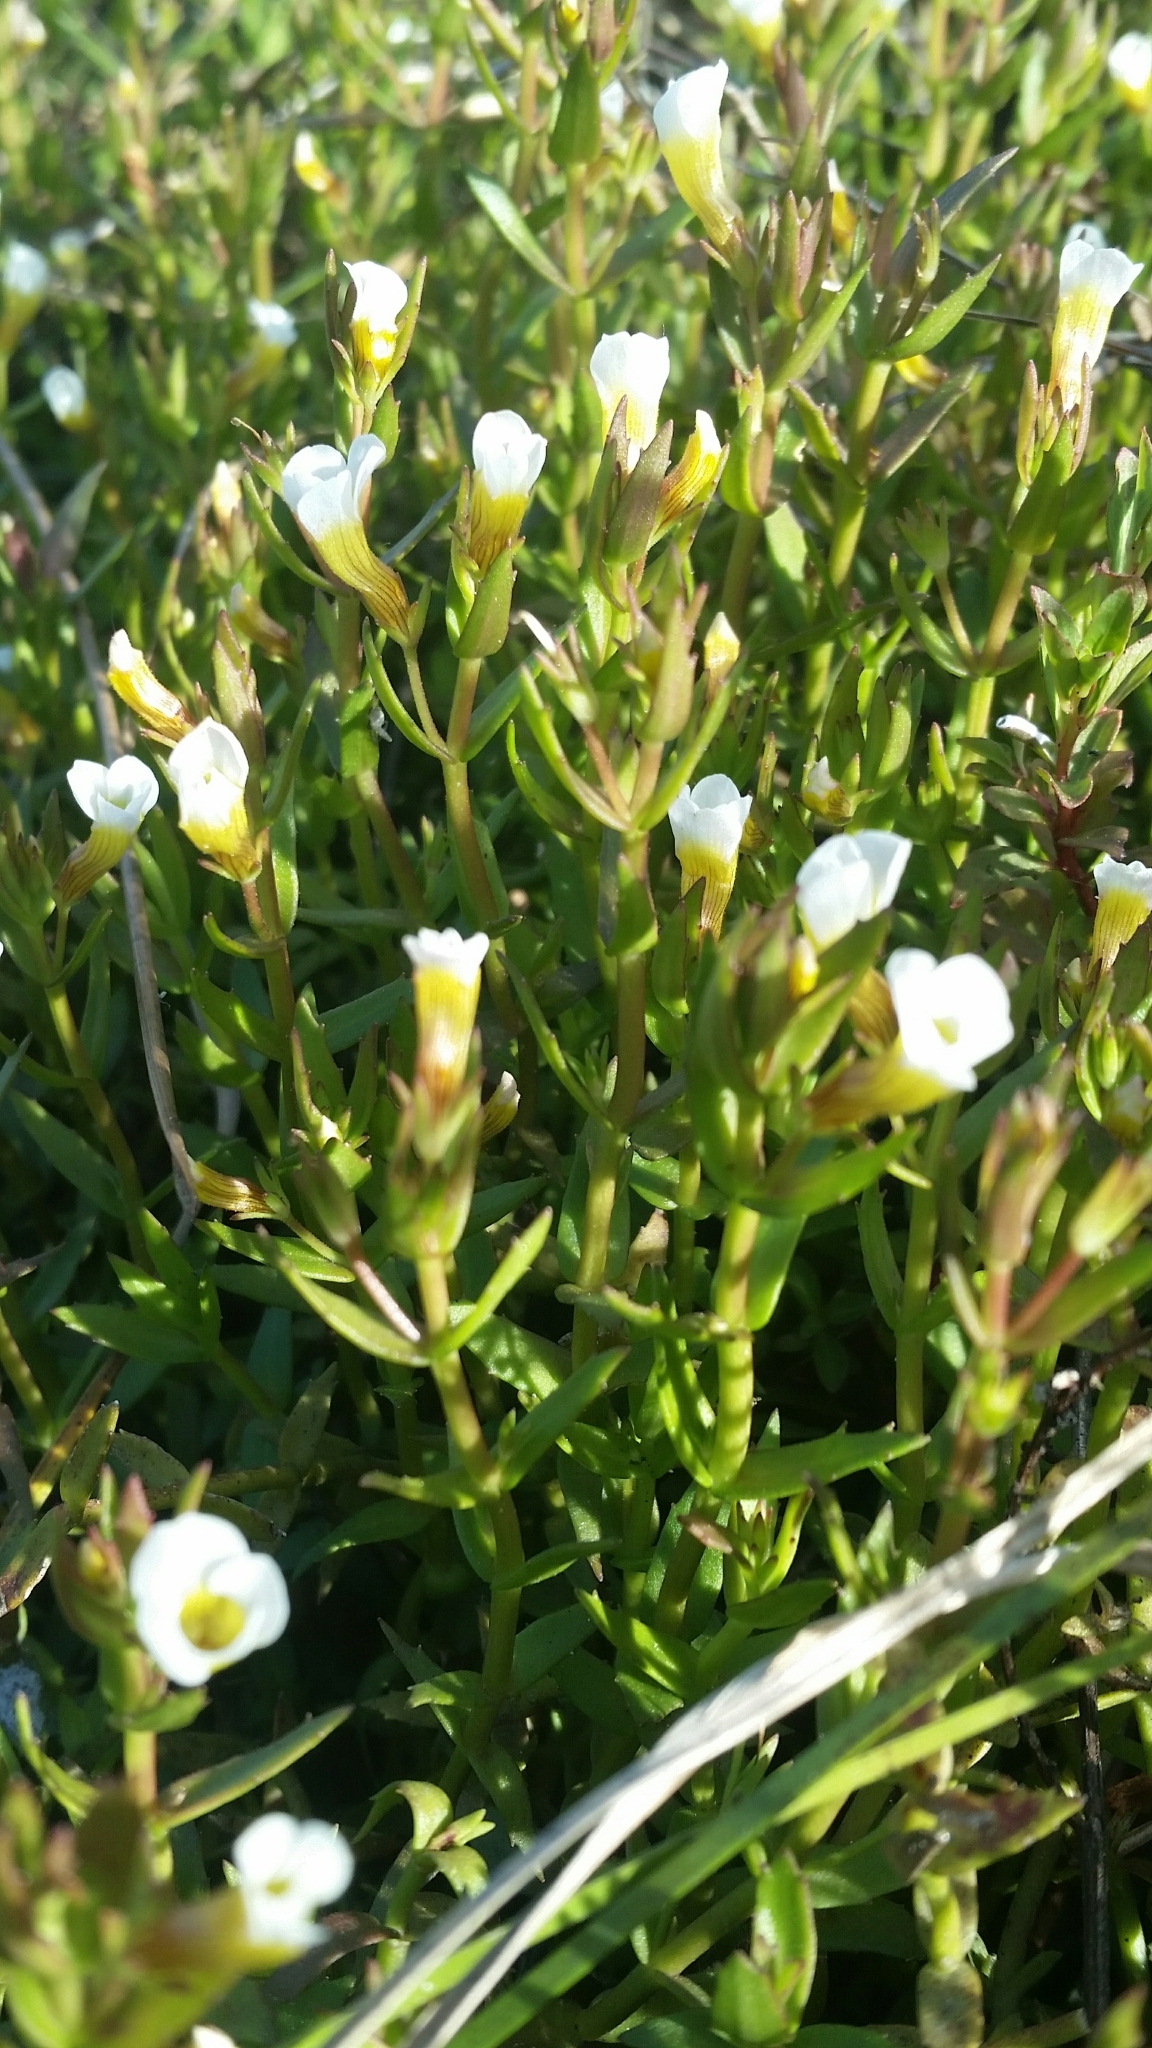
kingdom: Plantae
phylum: Tracheophyta
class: Magnoliopsida
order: Lamiales
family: Plantaginaceae
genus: Gratiola
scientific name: Gratiola ramosa
